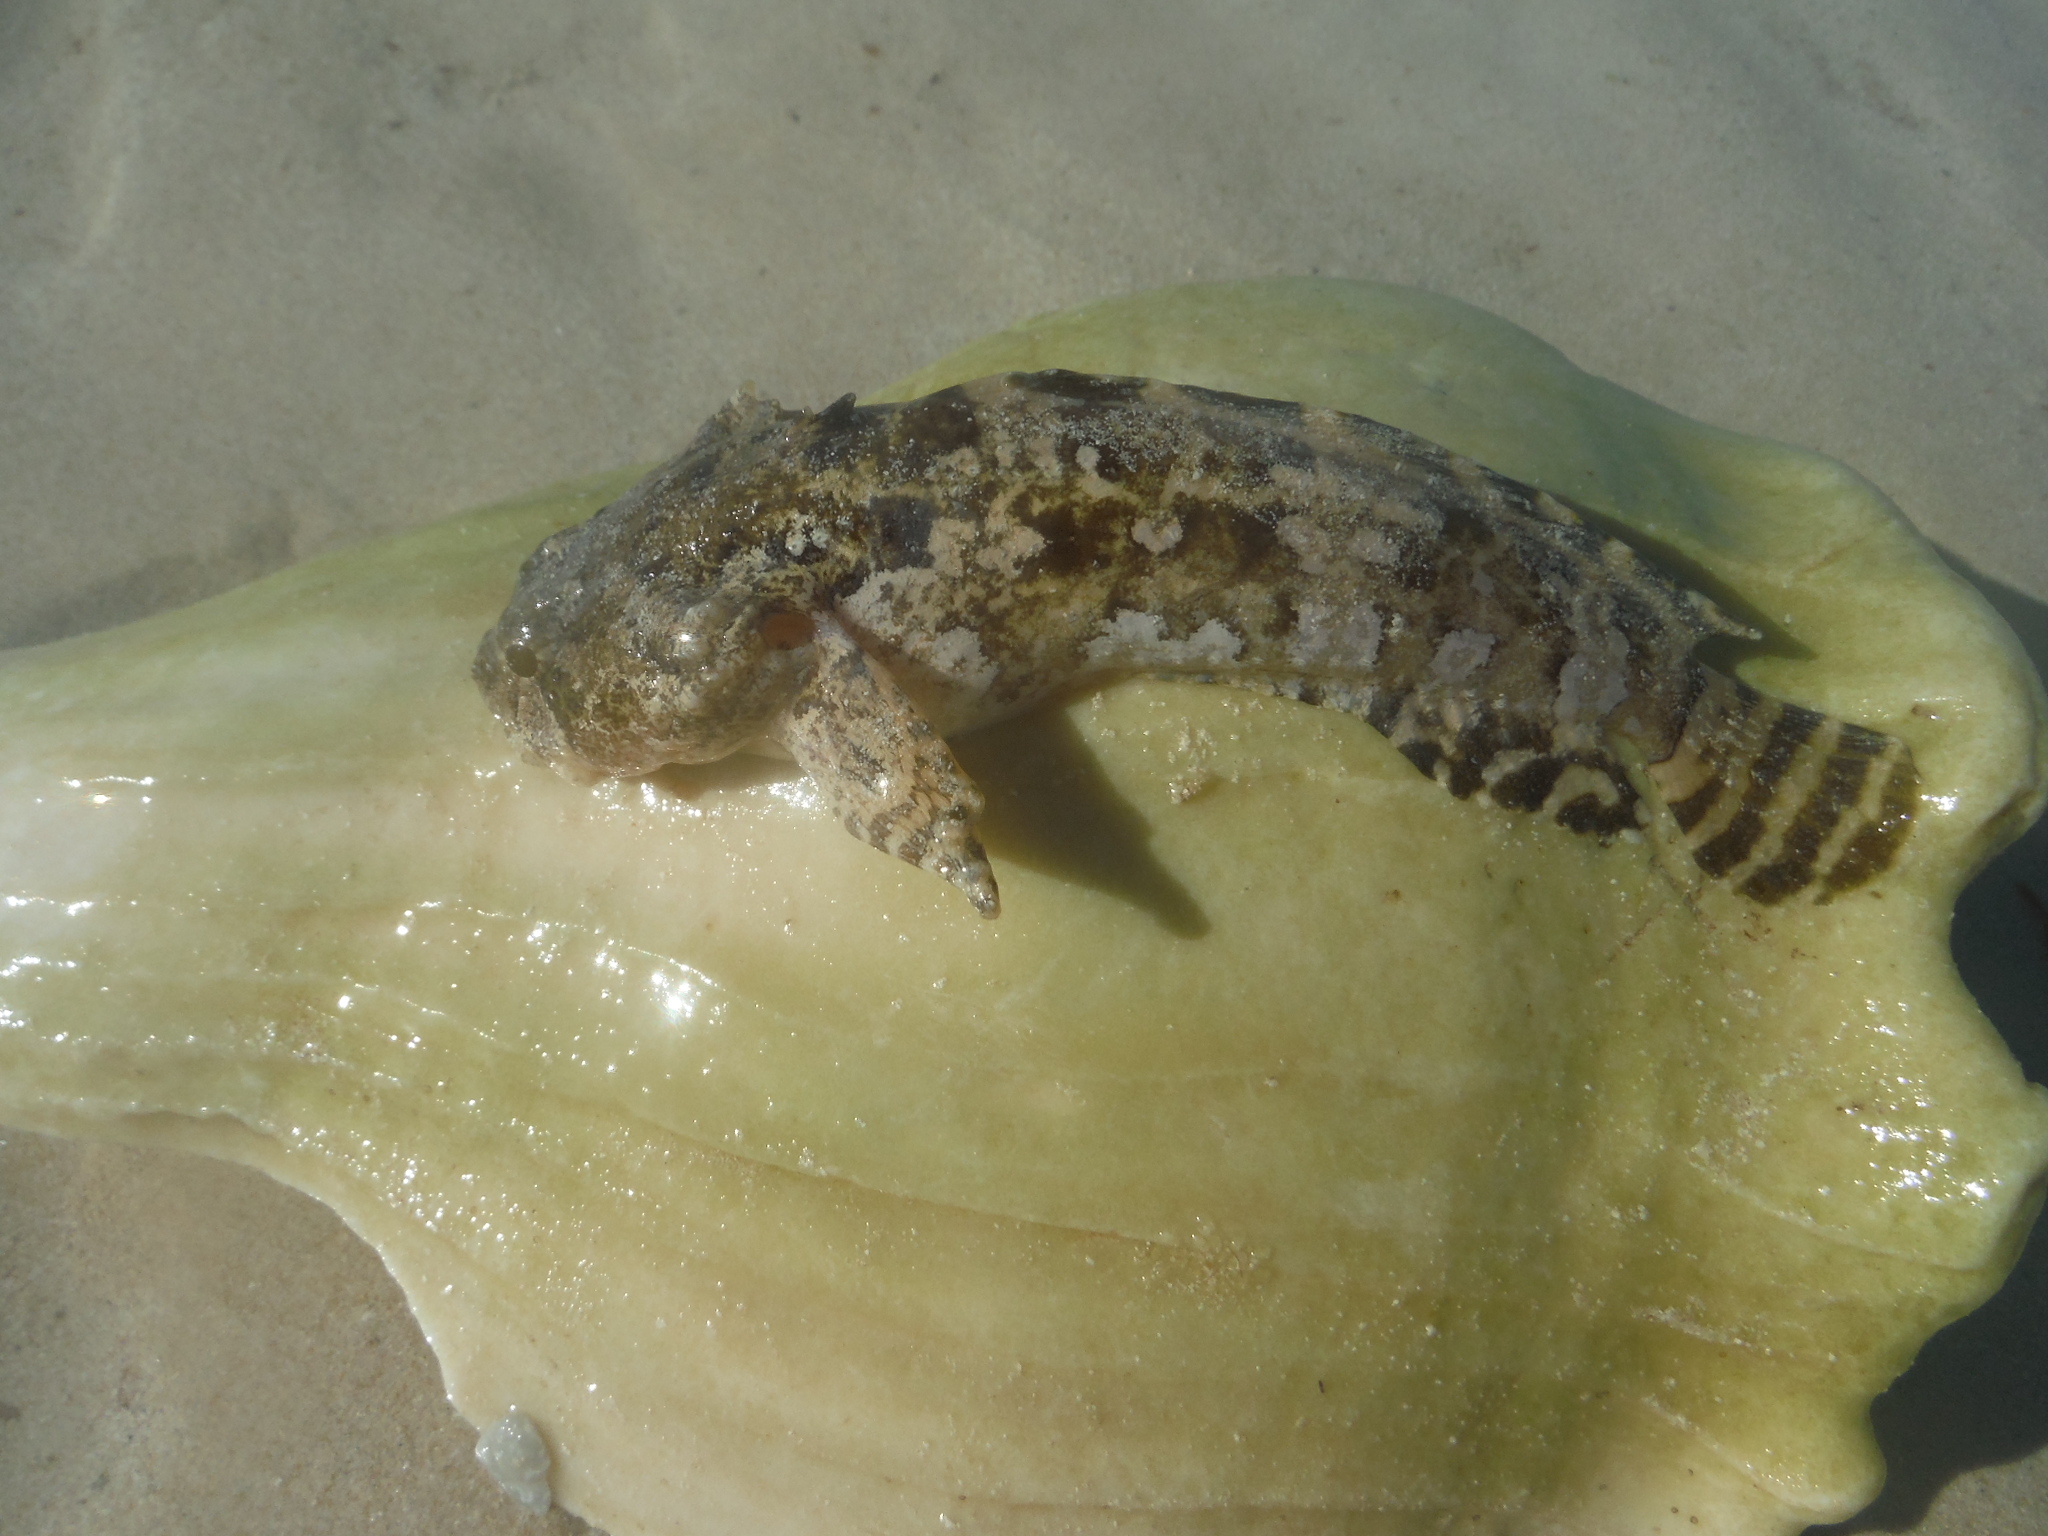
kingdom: Animalia
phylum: Chordata
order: Batrachoidiformes
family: Batrachoididae
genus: Opsanus
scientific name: Opsanus beta
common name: Gulf toadfish
